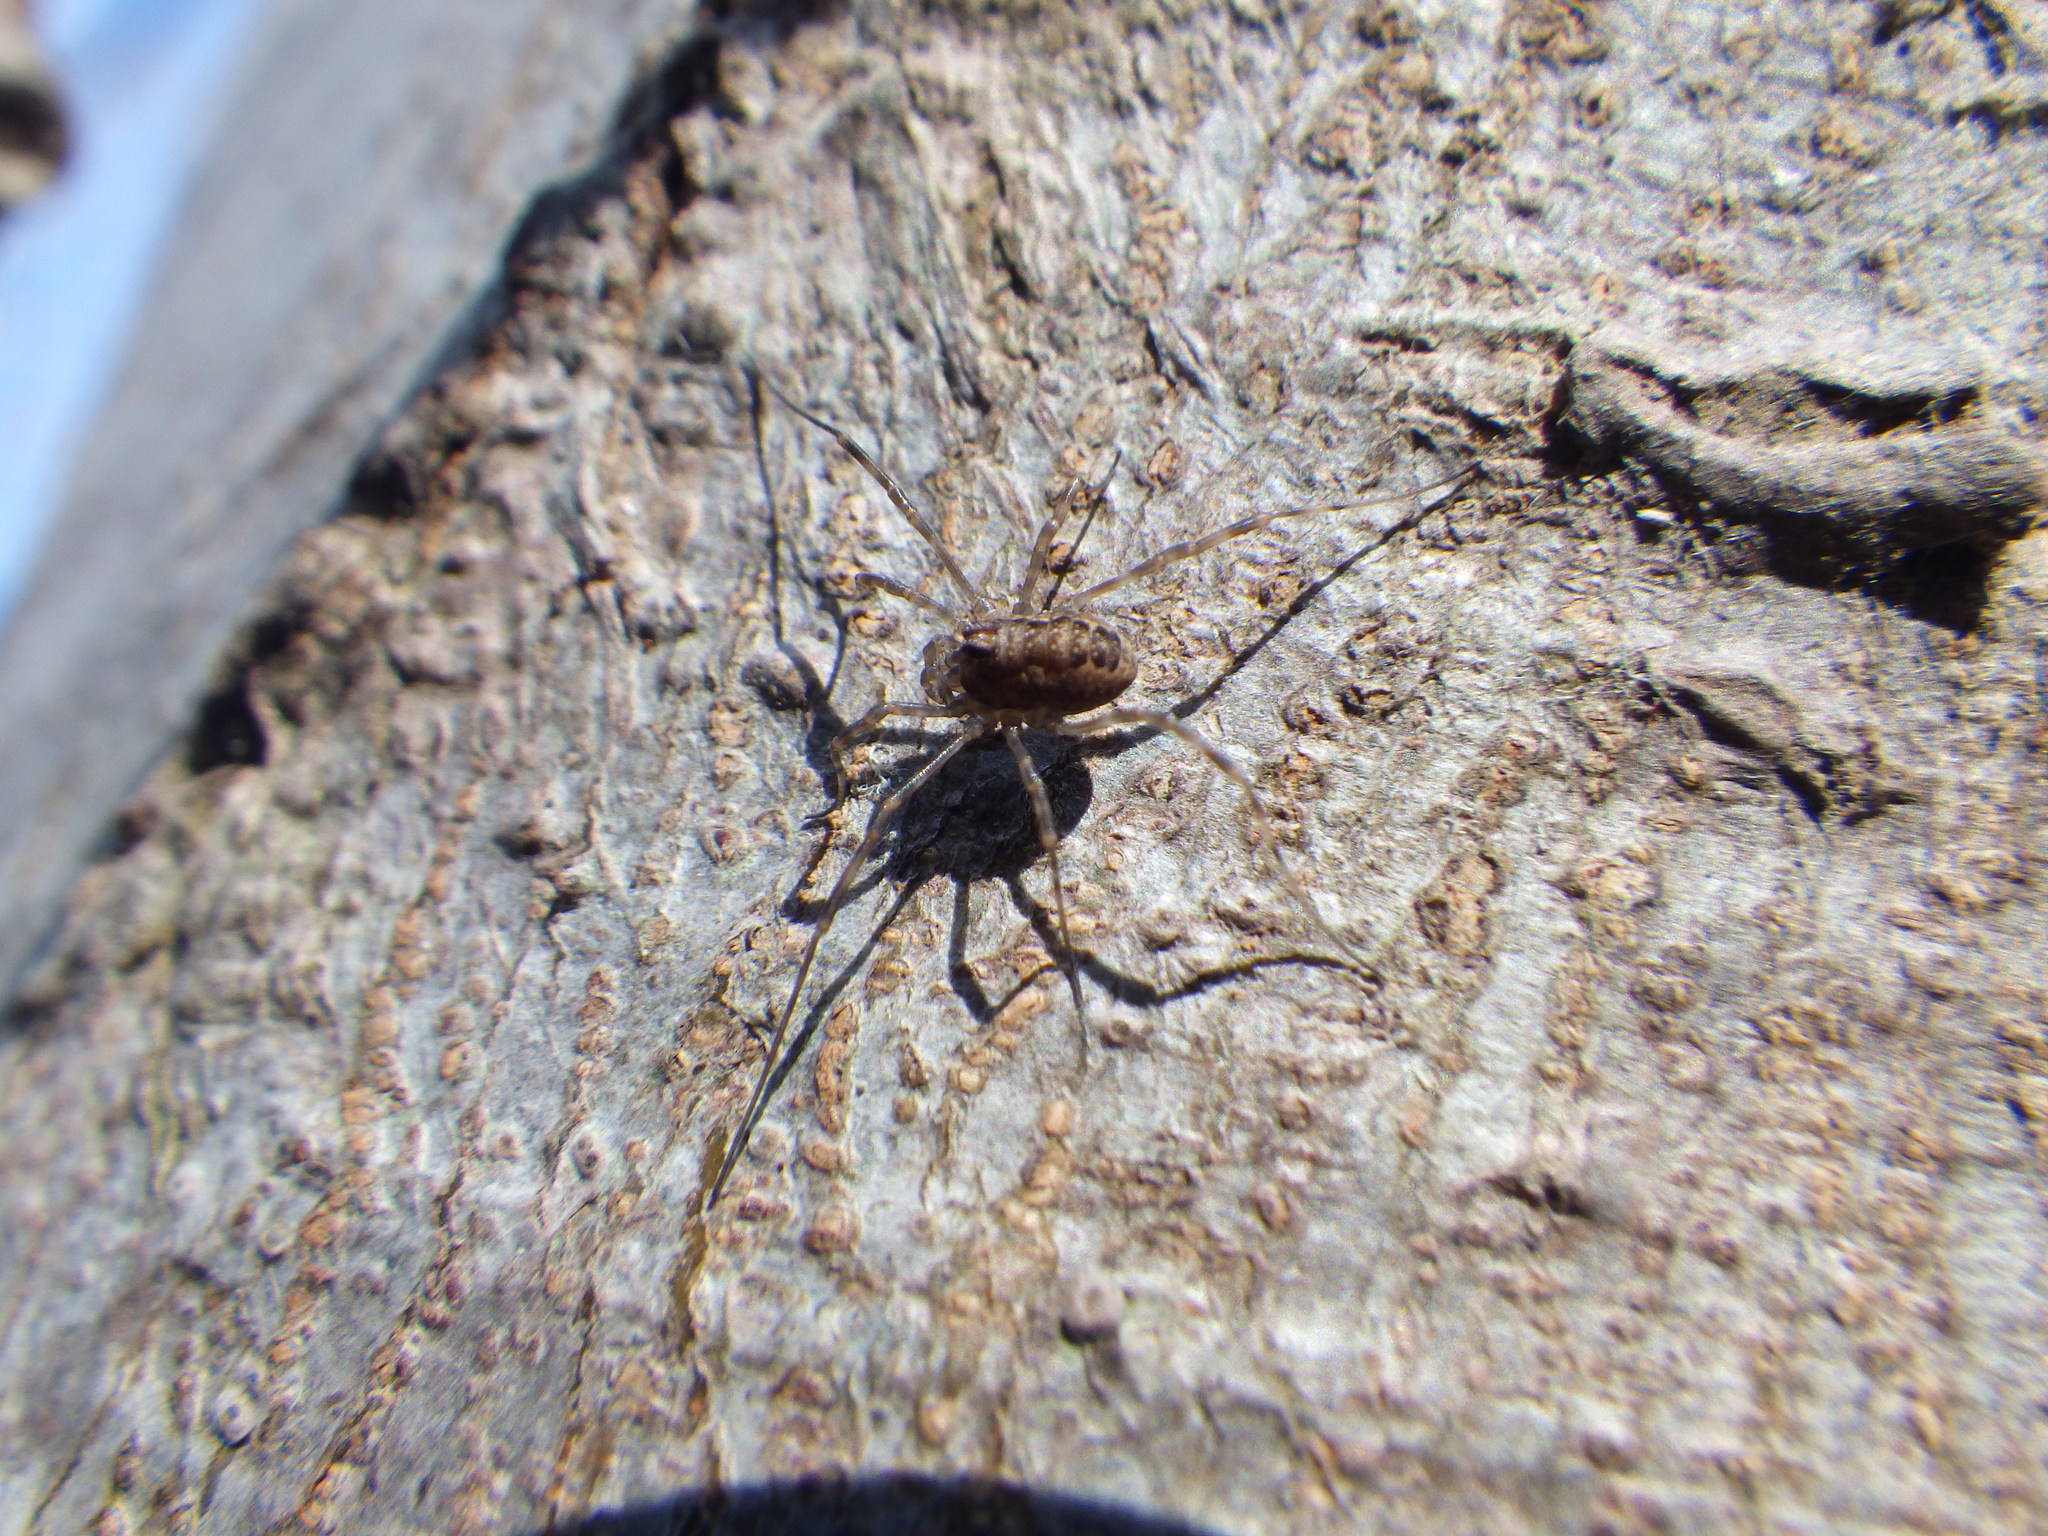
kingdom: Animalia
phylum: Arthropoda
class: Arachnida
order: Opiliones
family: Phalangiidae
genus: Rilaena
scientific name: Rilaena triangularis
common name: Spring harvestman
